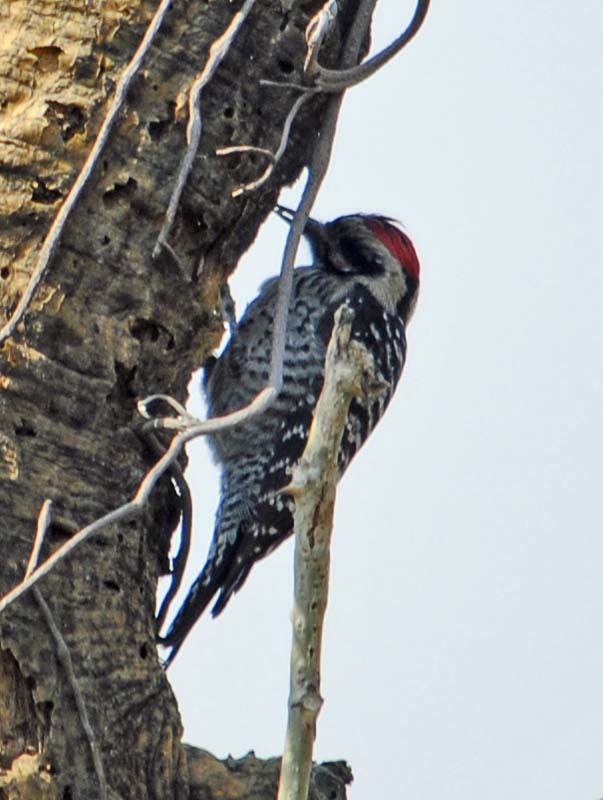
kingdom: Animalia
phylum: Chordata
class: Aves
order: Piciformes
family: Picidae
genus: Dryobates
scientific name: Dryobates scalaris
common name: Ladder-backed woodpecker
